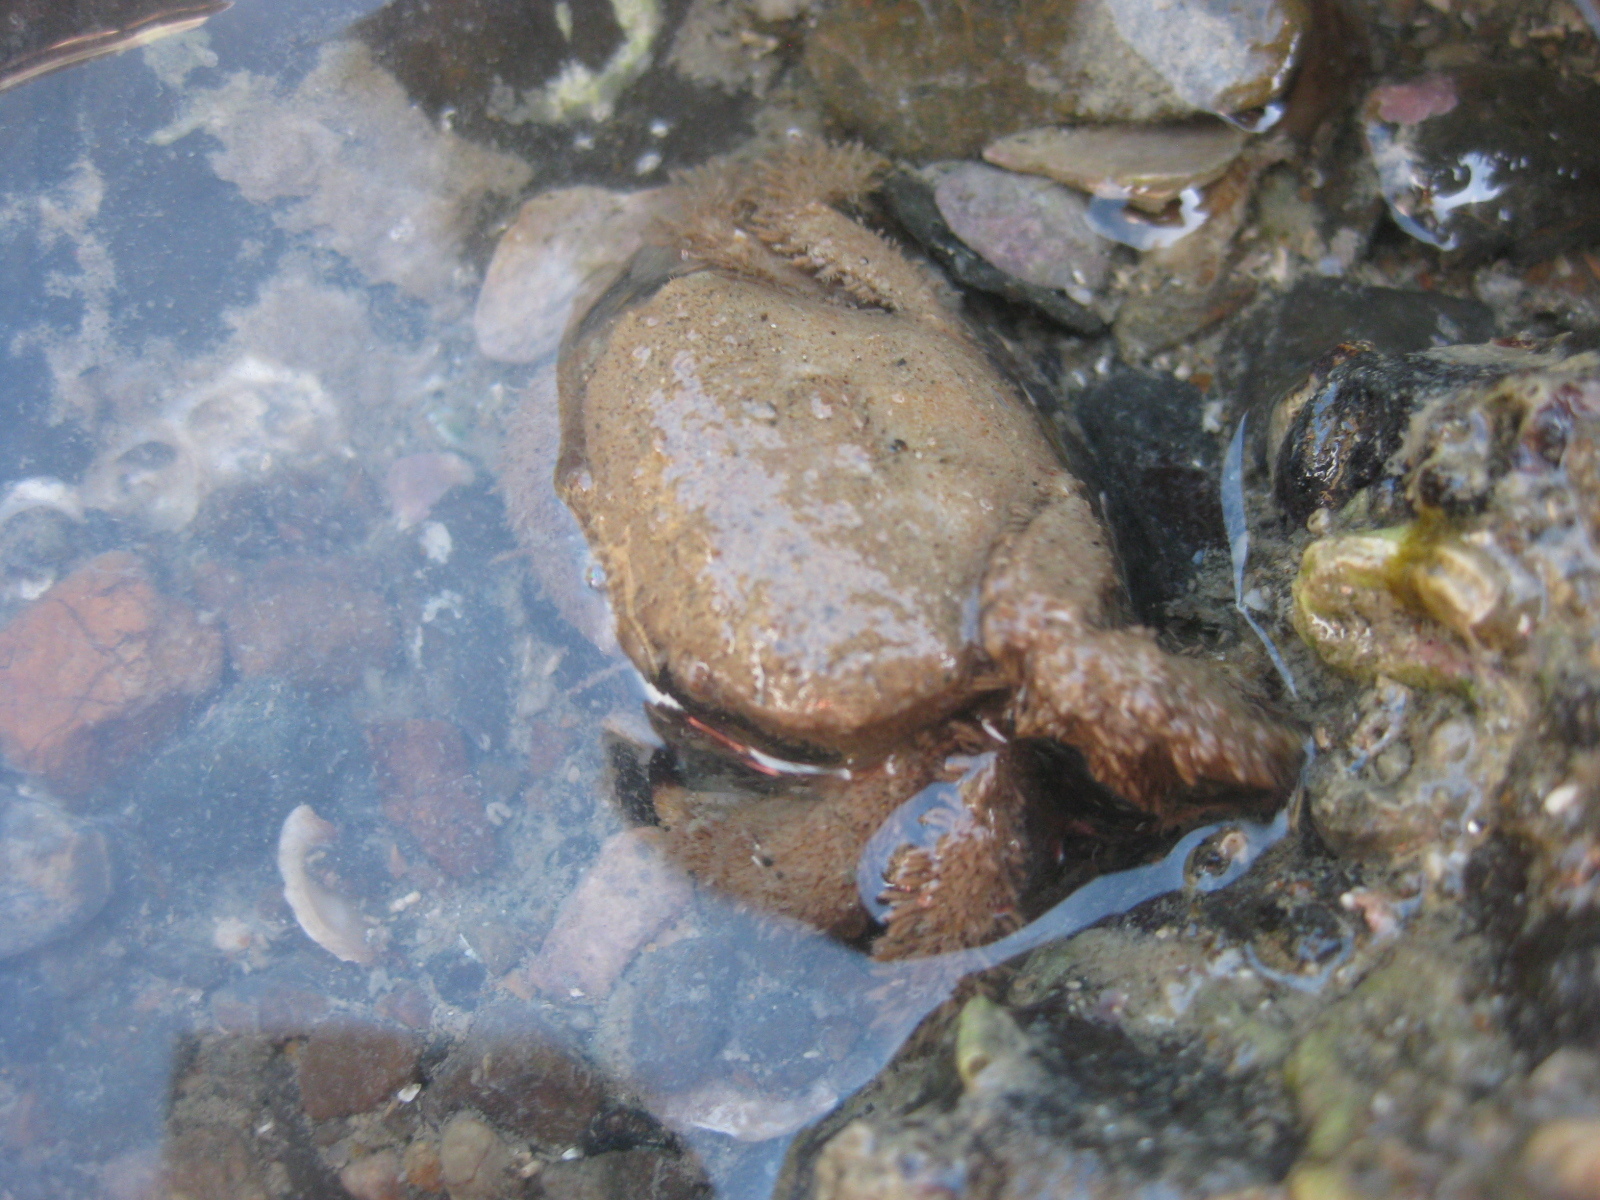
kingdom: Animalia
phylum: Arthropoda
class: Malacostraca
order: Decapoda
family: Pilumnidae
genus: Pilumnus
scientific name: Pilumnus lumpinus
